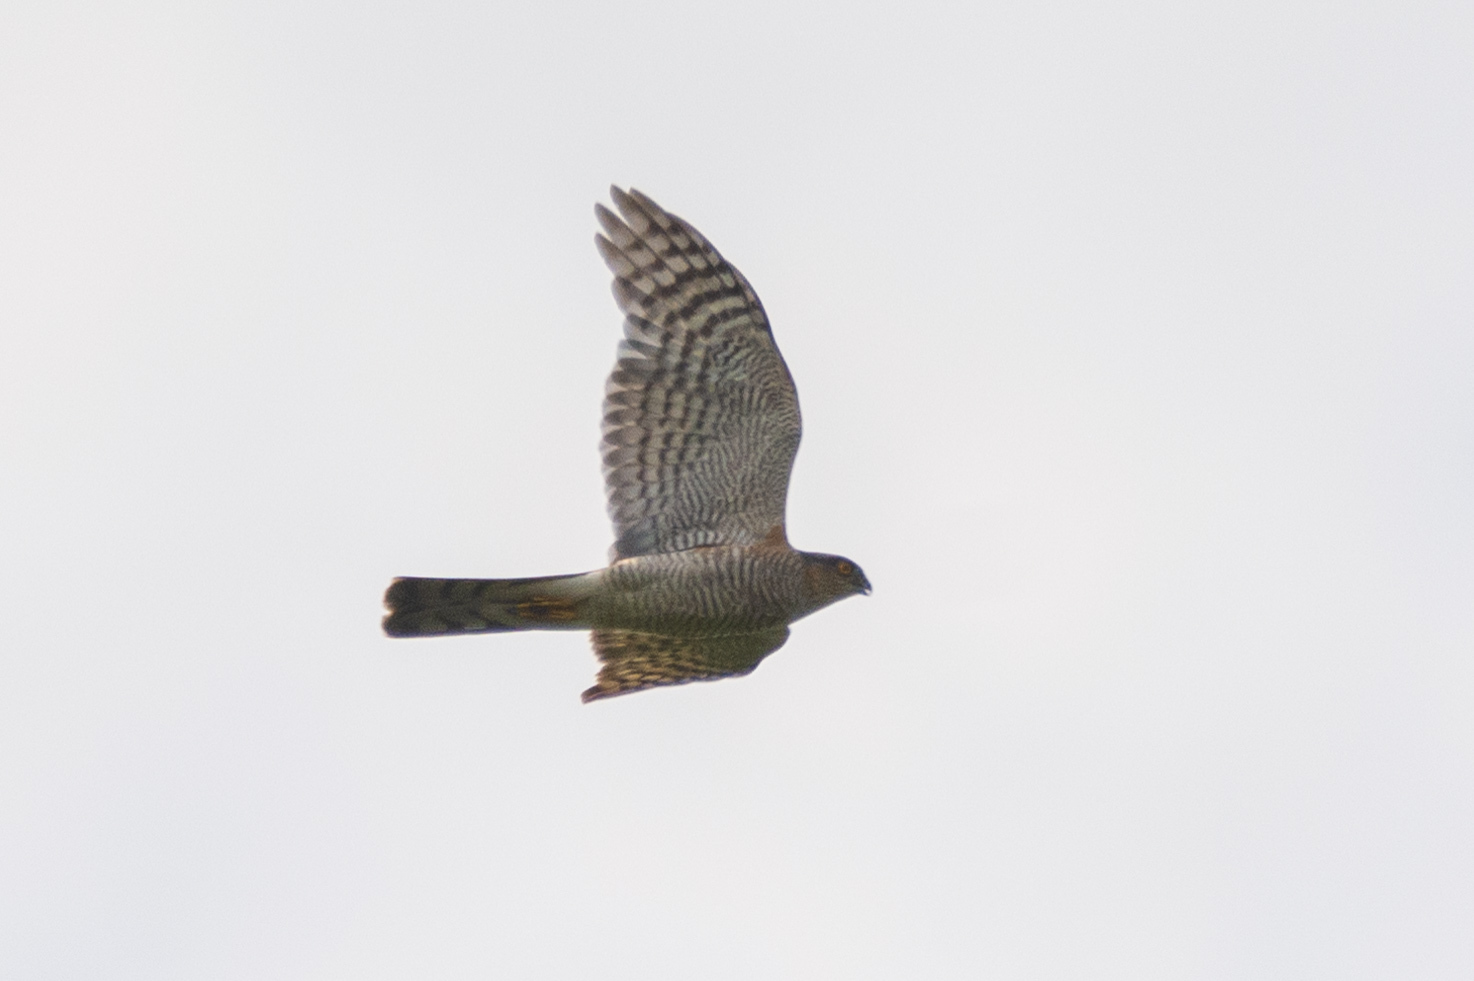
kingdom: Animalia
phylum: Chordata
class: Aves
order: Accipitriformes
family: Accipitridae
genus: Accipiter
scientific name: Accipiter nisus
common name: Eurasian sparrowhawk
